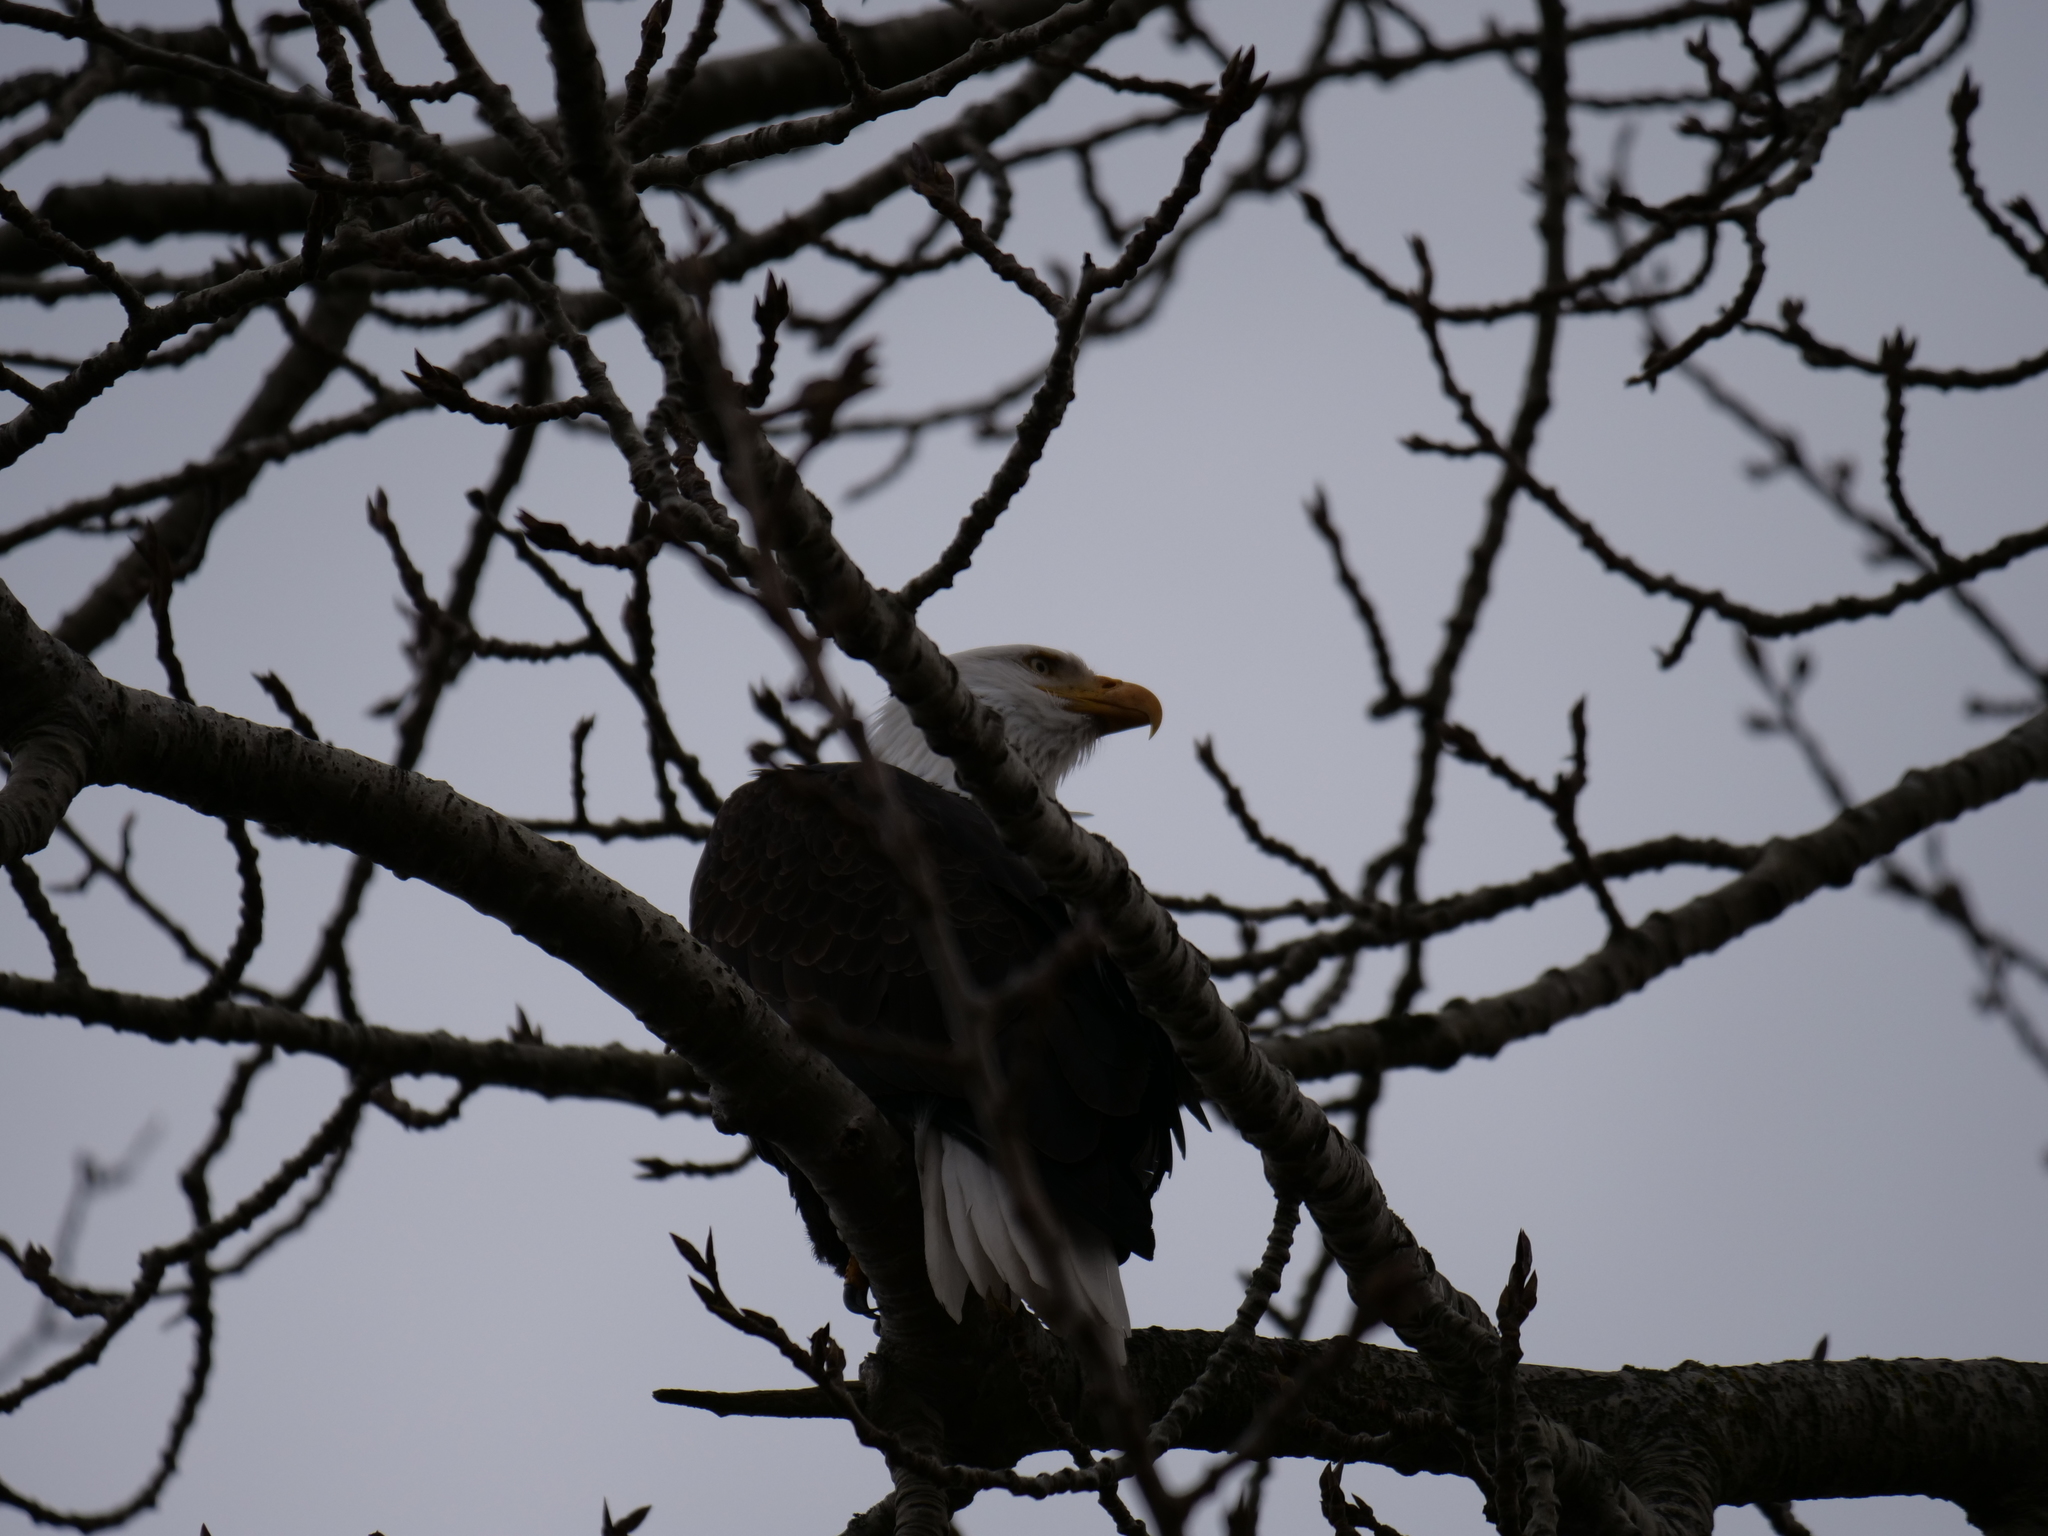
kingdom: Animalia
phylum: Chordata
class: Aves
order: Accipitriformes
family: Accipitridae
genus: Haliaeetus
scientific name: Haliaeetus leucocephalus
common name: Bald eagle
